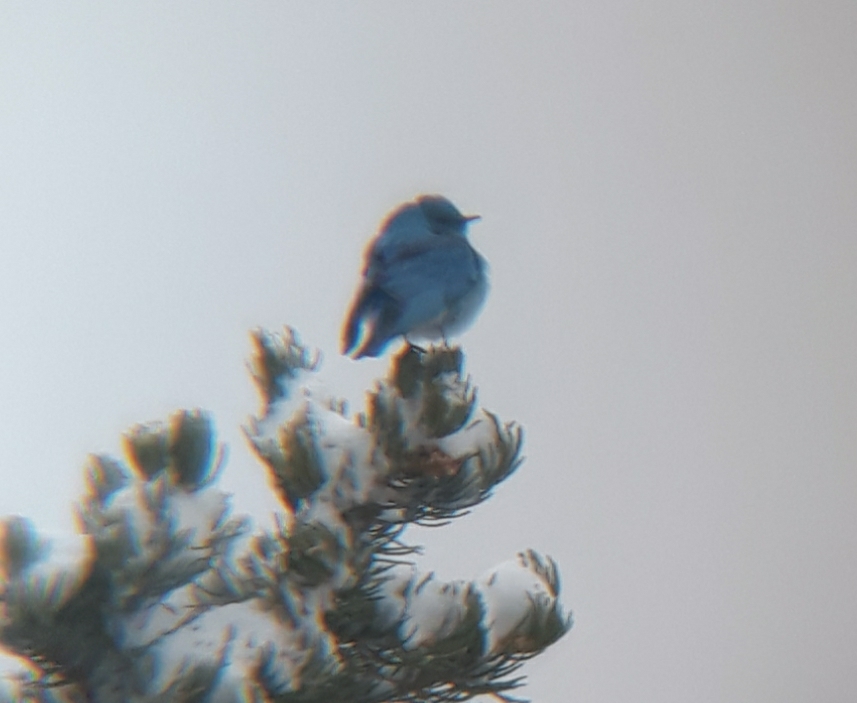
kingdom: Animalia
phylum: Chordata
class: Aves
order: Passeriformes
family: Turdidae
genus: Sialia
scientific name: Sialia currucoides
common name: Mountain bluebird
